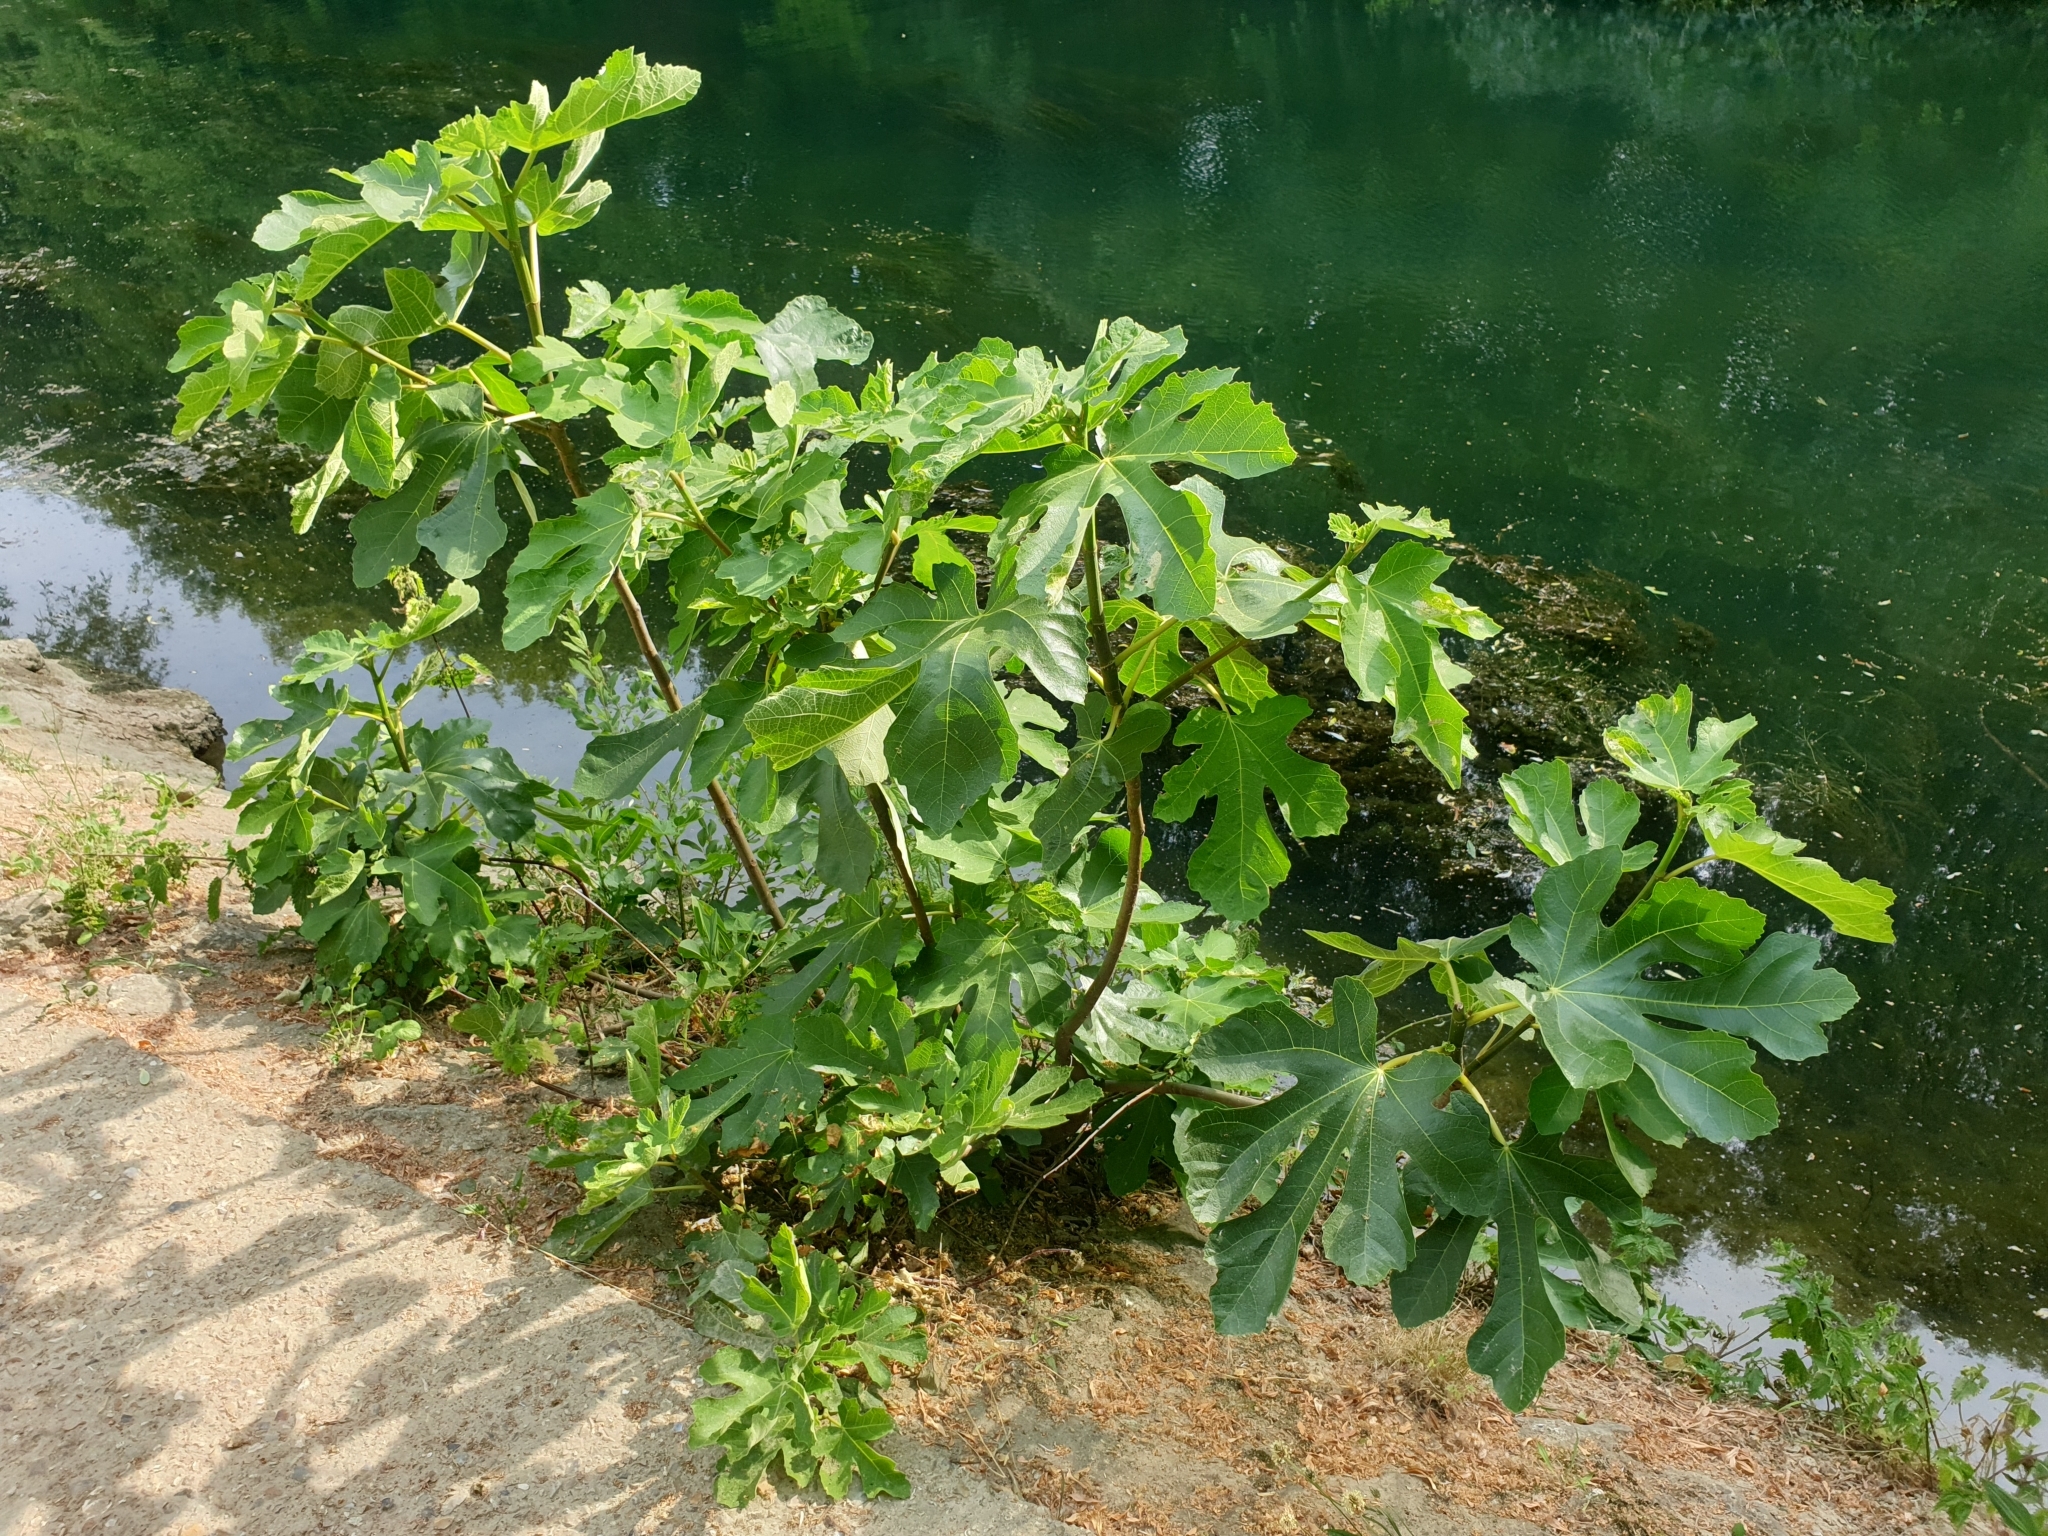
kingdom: Plantae
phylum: Tracheophyta
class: Magnoliopsida
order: Rosales
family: Moraceae
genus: Ficus
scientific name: Ficus carica
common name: Fig
